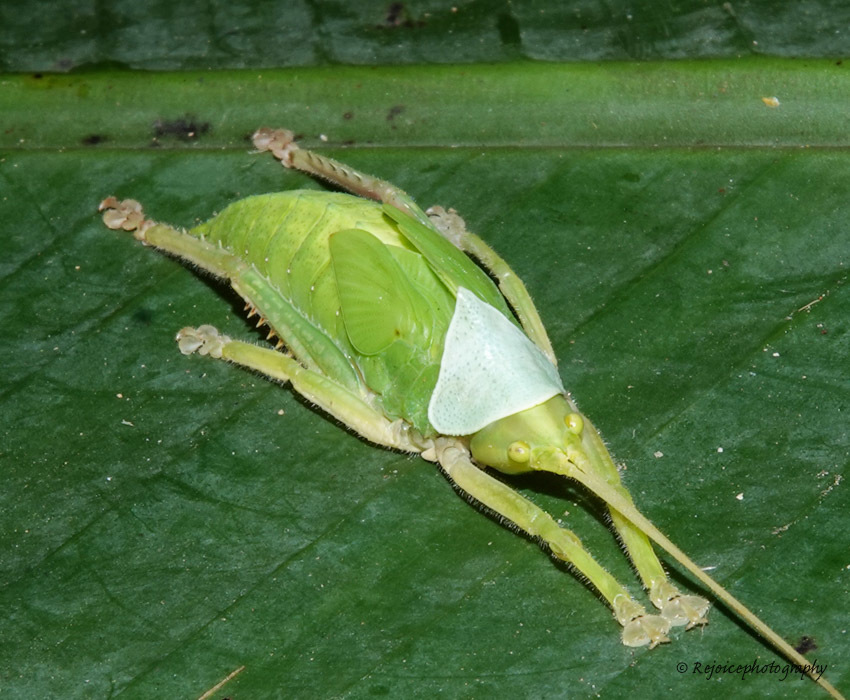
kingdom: Animalia
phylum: Arthropoda
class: Insecta
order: Orthoptera
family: Tettigoniidae
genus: Onomarchus
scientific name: Onomarchus uninotatus
